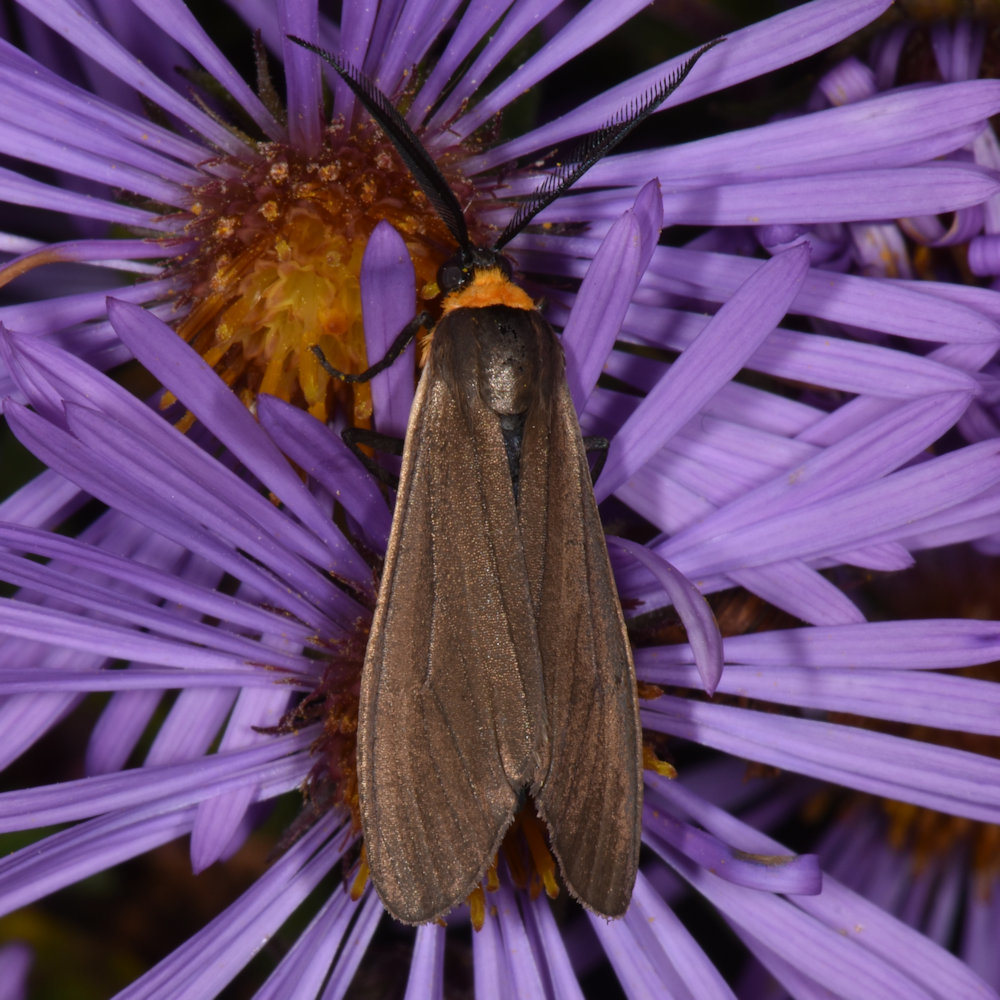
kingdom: Animalia
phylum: Arthropoda
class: Insecta
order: Lepidoptera
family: Erebidae
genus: Cisseps
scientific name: Cisseps fulvicollis
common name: Yellow-collared scape moth
